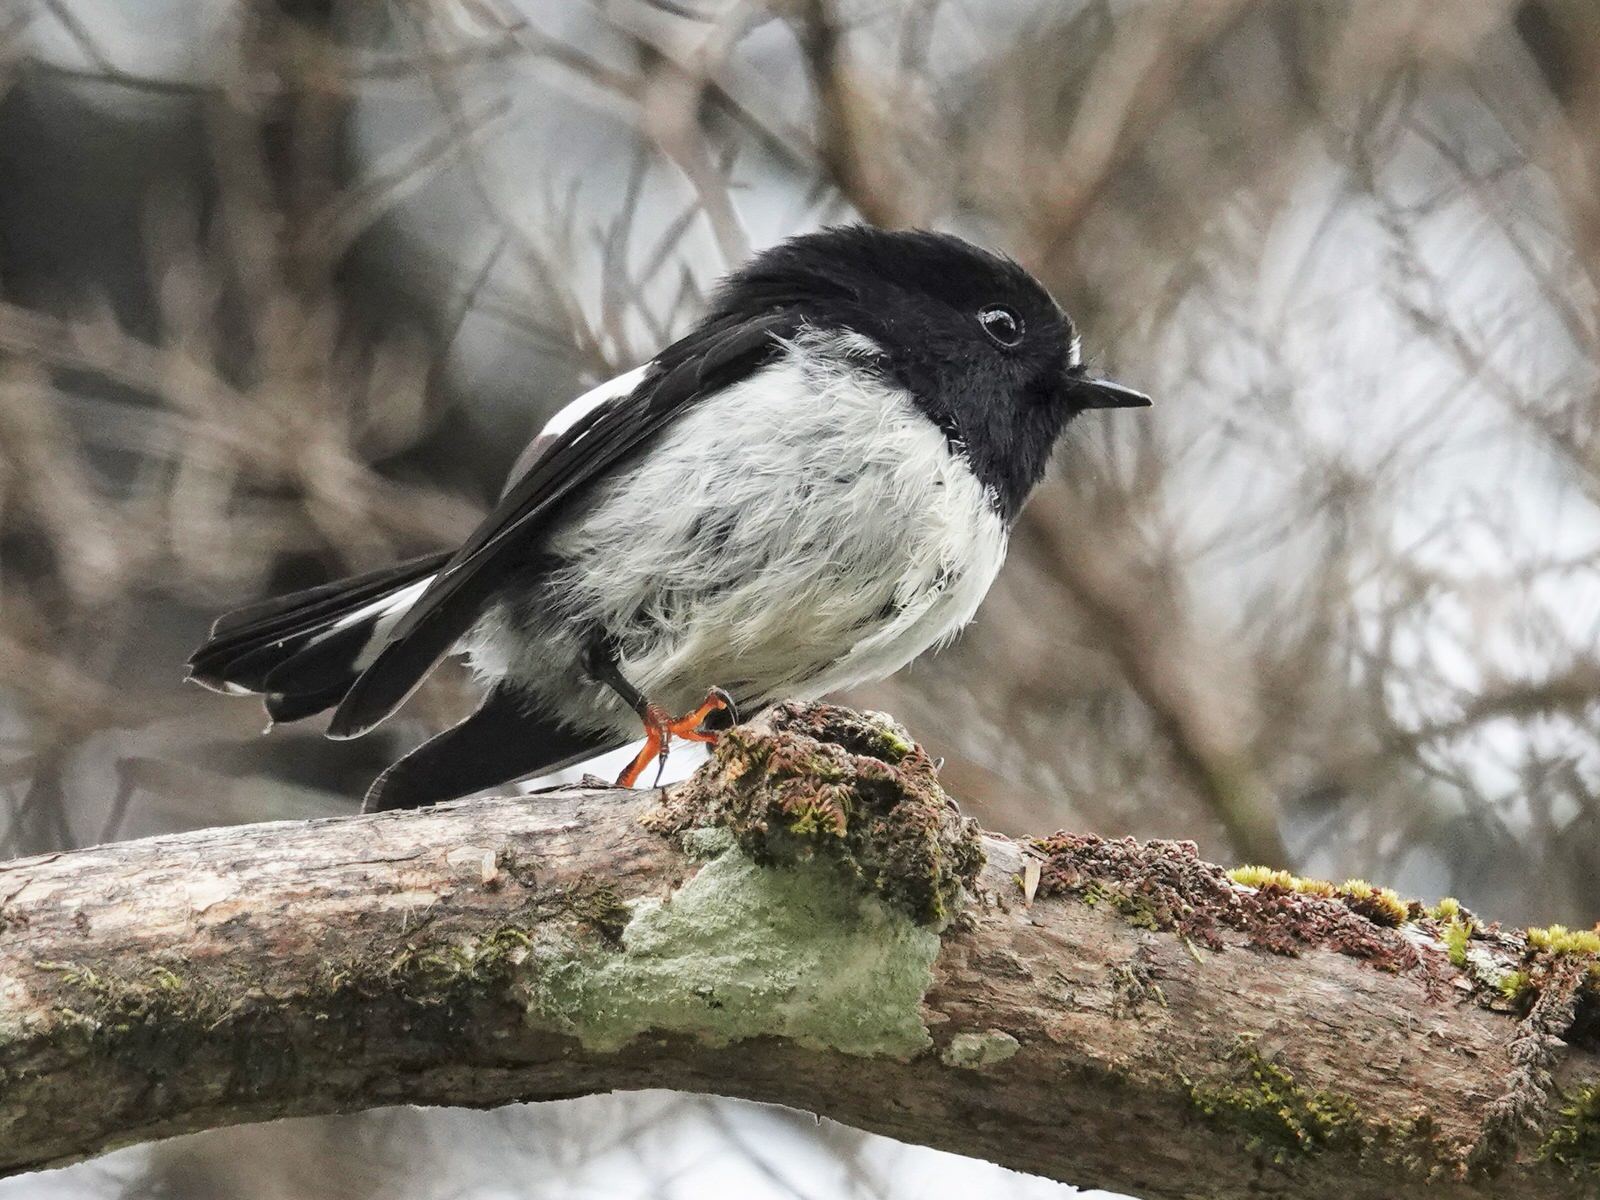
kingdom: Animalia
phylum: Chordata
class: Aves
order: Passeriformes
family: Petroicidae
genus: Petroica
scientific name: Petroica macrocephala
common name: Tomtit
